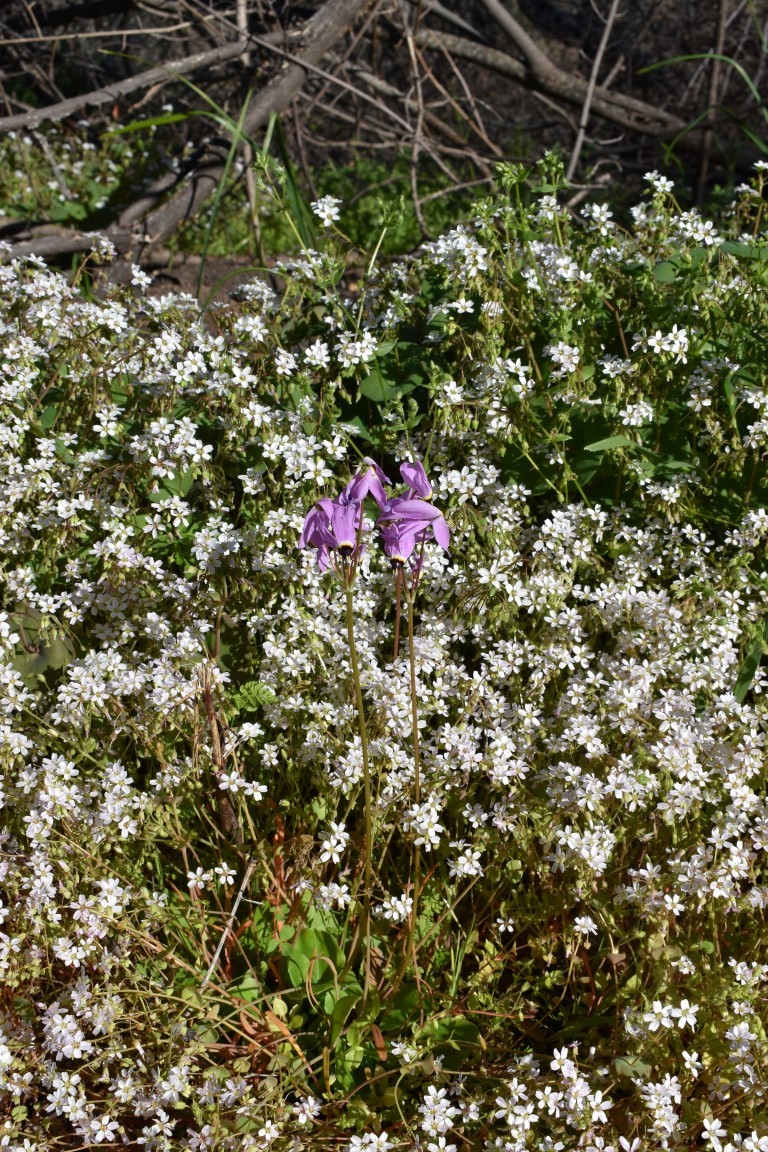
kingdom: Plantae
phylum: Tracheophyta
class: Magnoliopsida
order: Ericales
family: Primulaceae
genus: Dodecatheon
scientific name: Dodecatheon hendersonii
